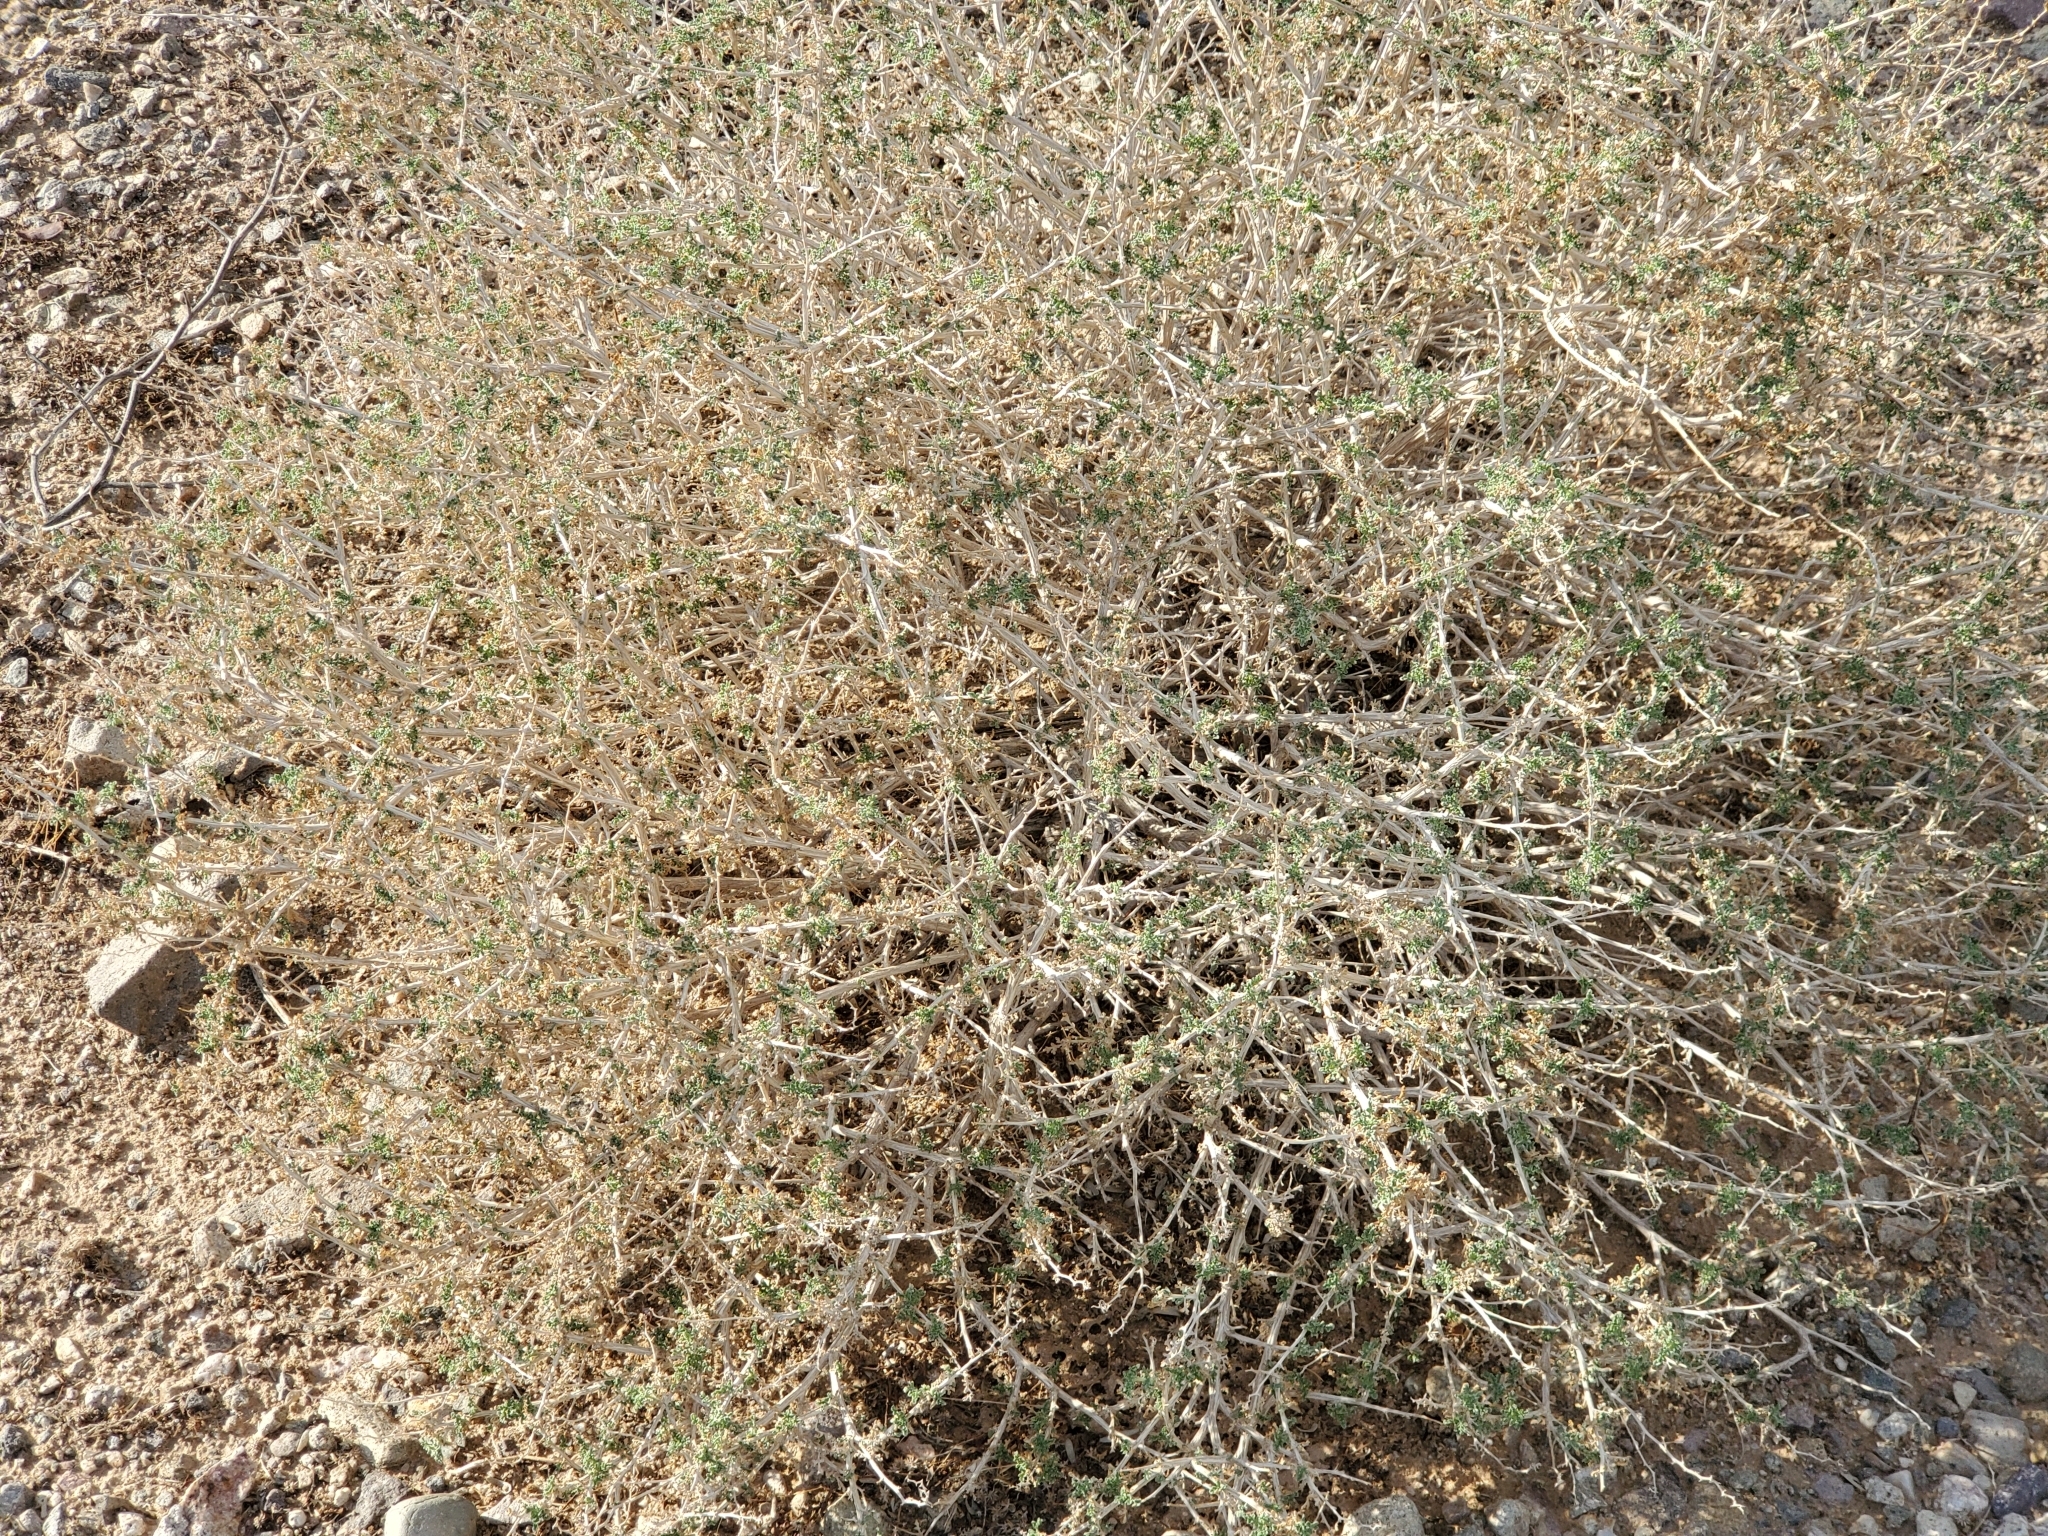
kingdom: Plantae
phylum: Tracheophyta
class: Magnoliopsida
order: Asterales
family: Asteraceae
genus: Ambrosia
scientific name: Ambrosia dumosa
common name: Bur-sage
